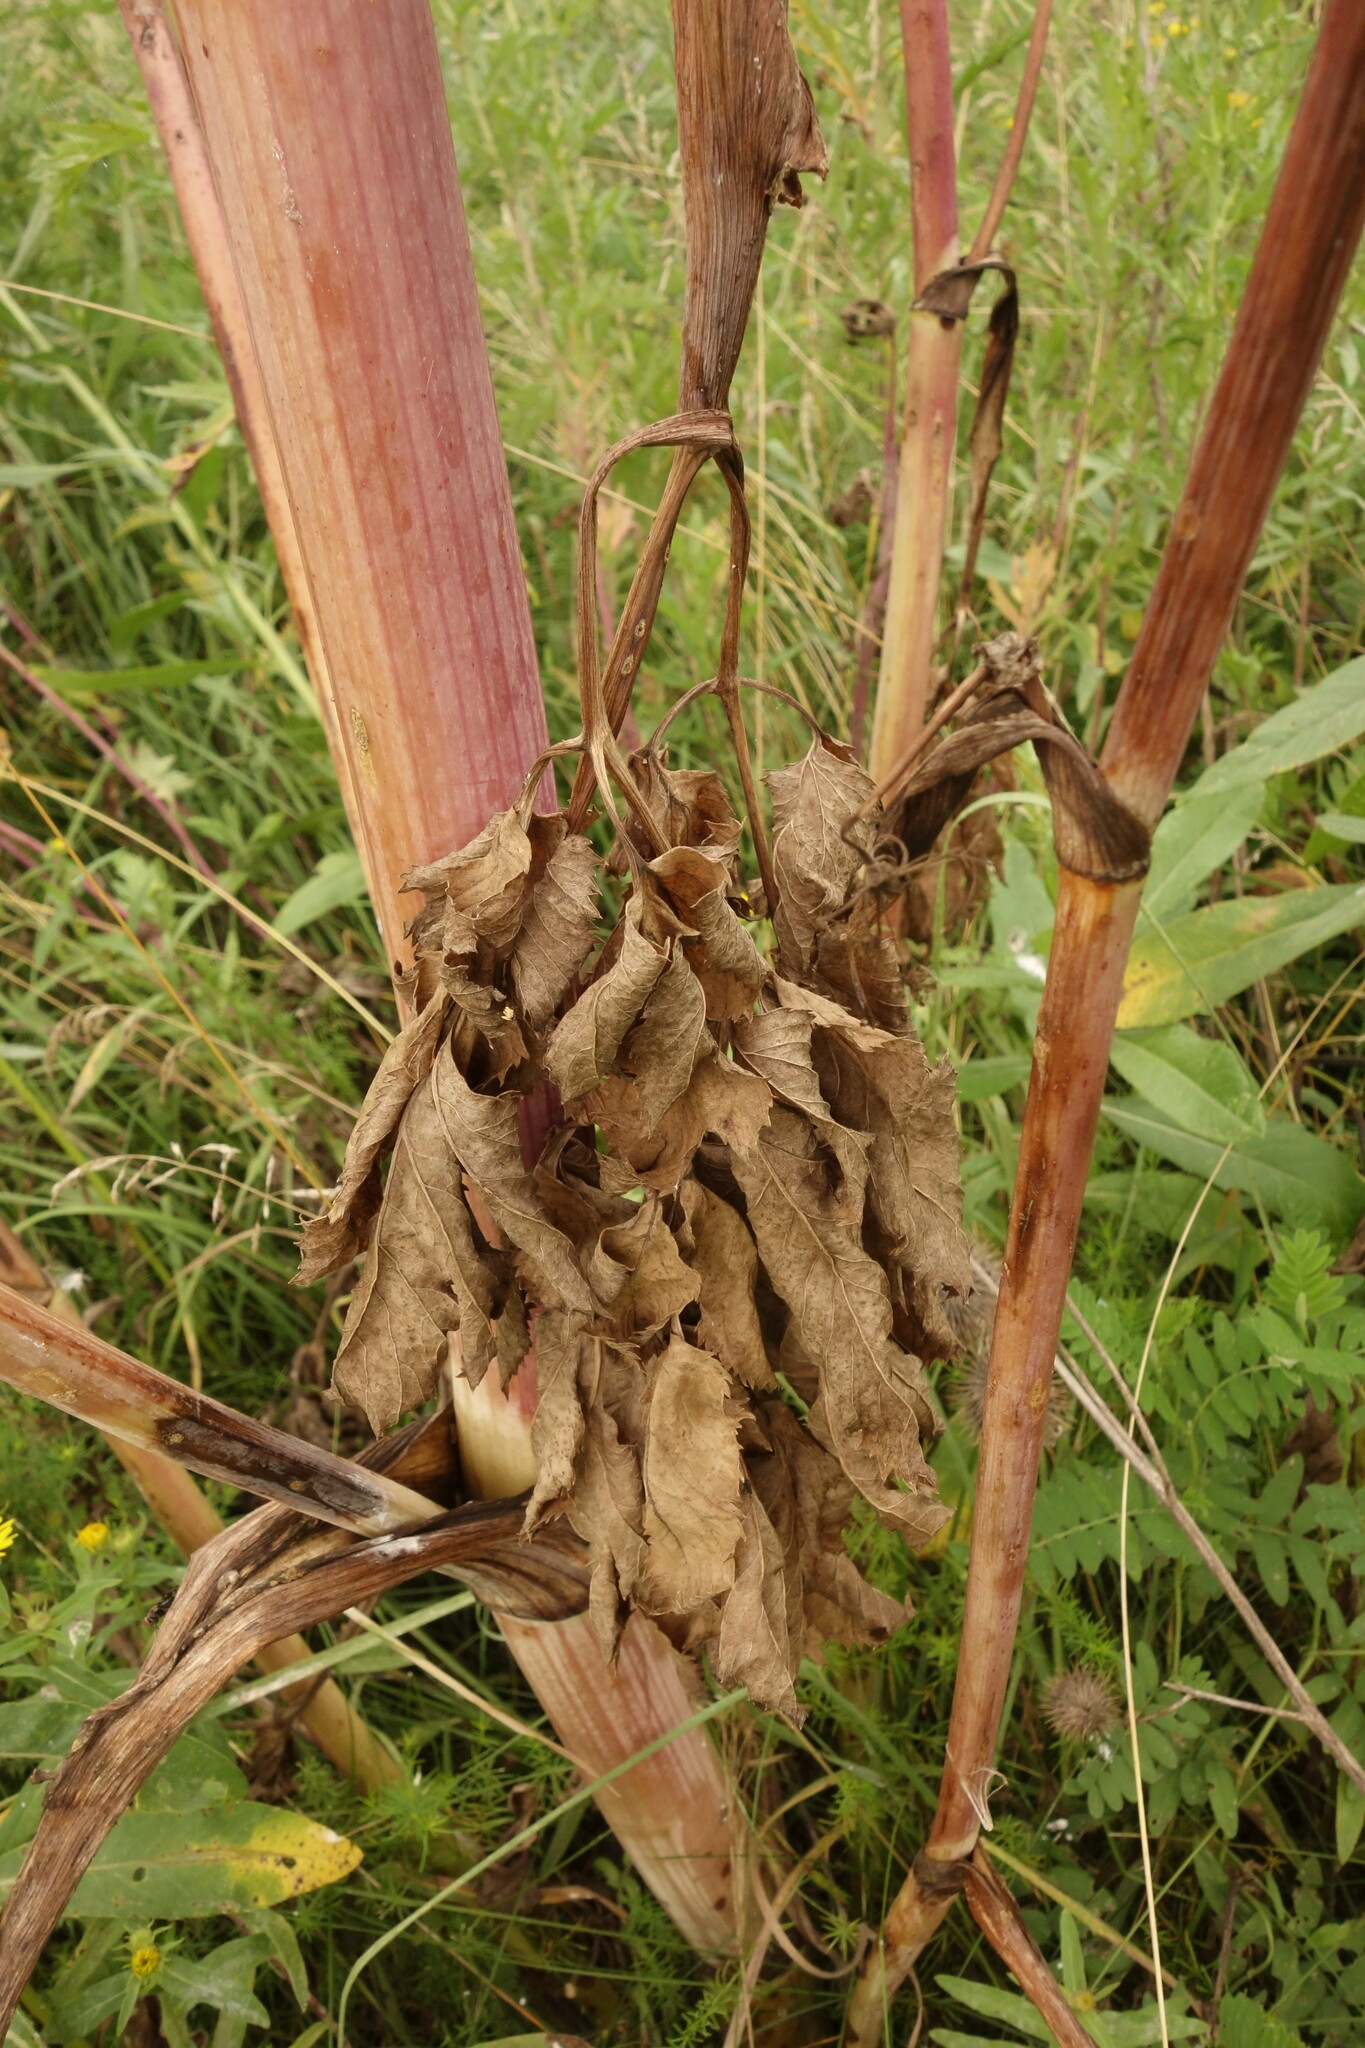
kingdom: Plantae
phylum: Tracheophyta
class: Magnoliopsida
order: Apiales
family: Apiaceae
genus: Angelica
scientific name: Angelica archangelica
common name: Garden angelica
